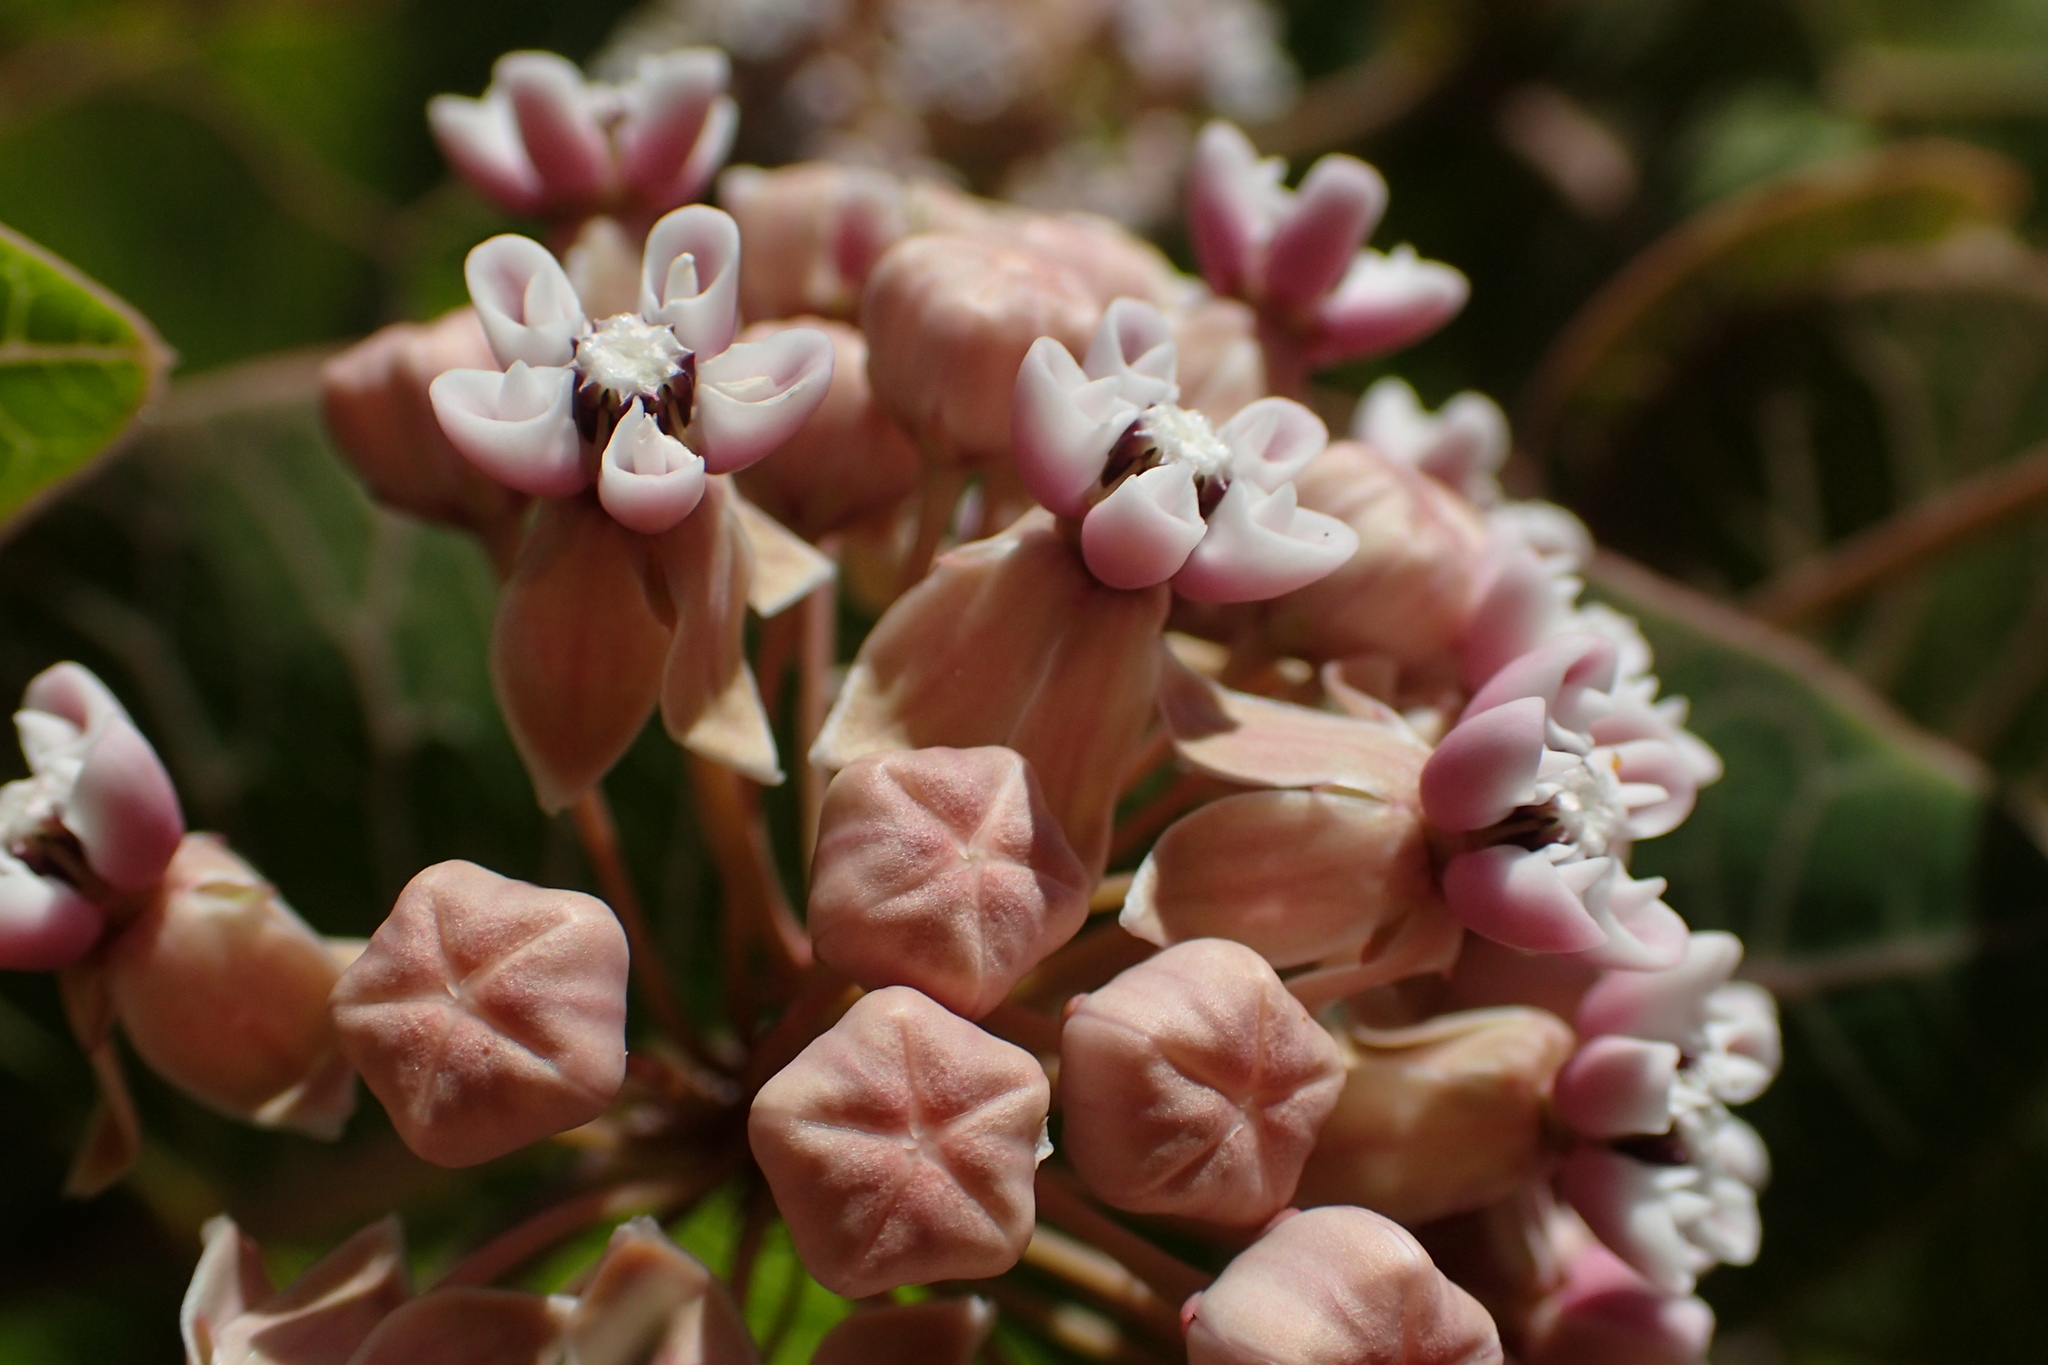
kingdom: Plantae
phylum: Tracheophyta
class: Magnoliopsida
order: Gentianales
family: Apocynaceae
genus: Asclepias
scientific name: Asclepias humistrata
